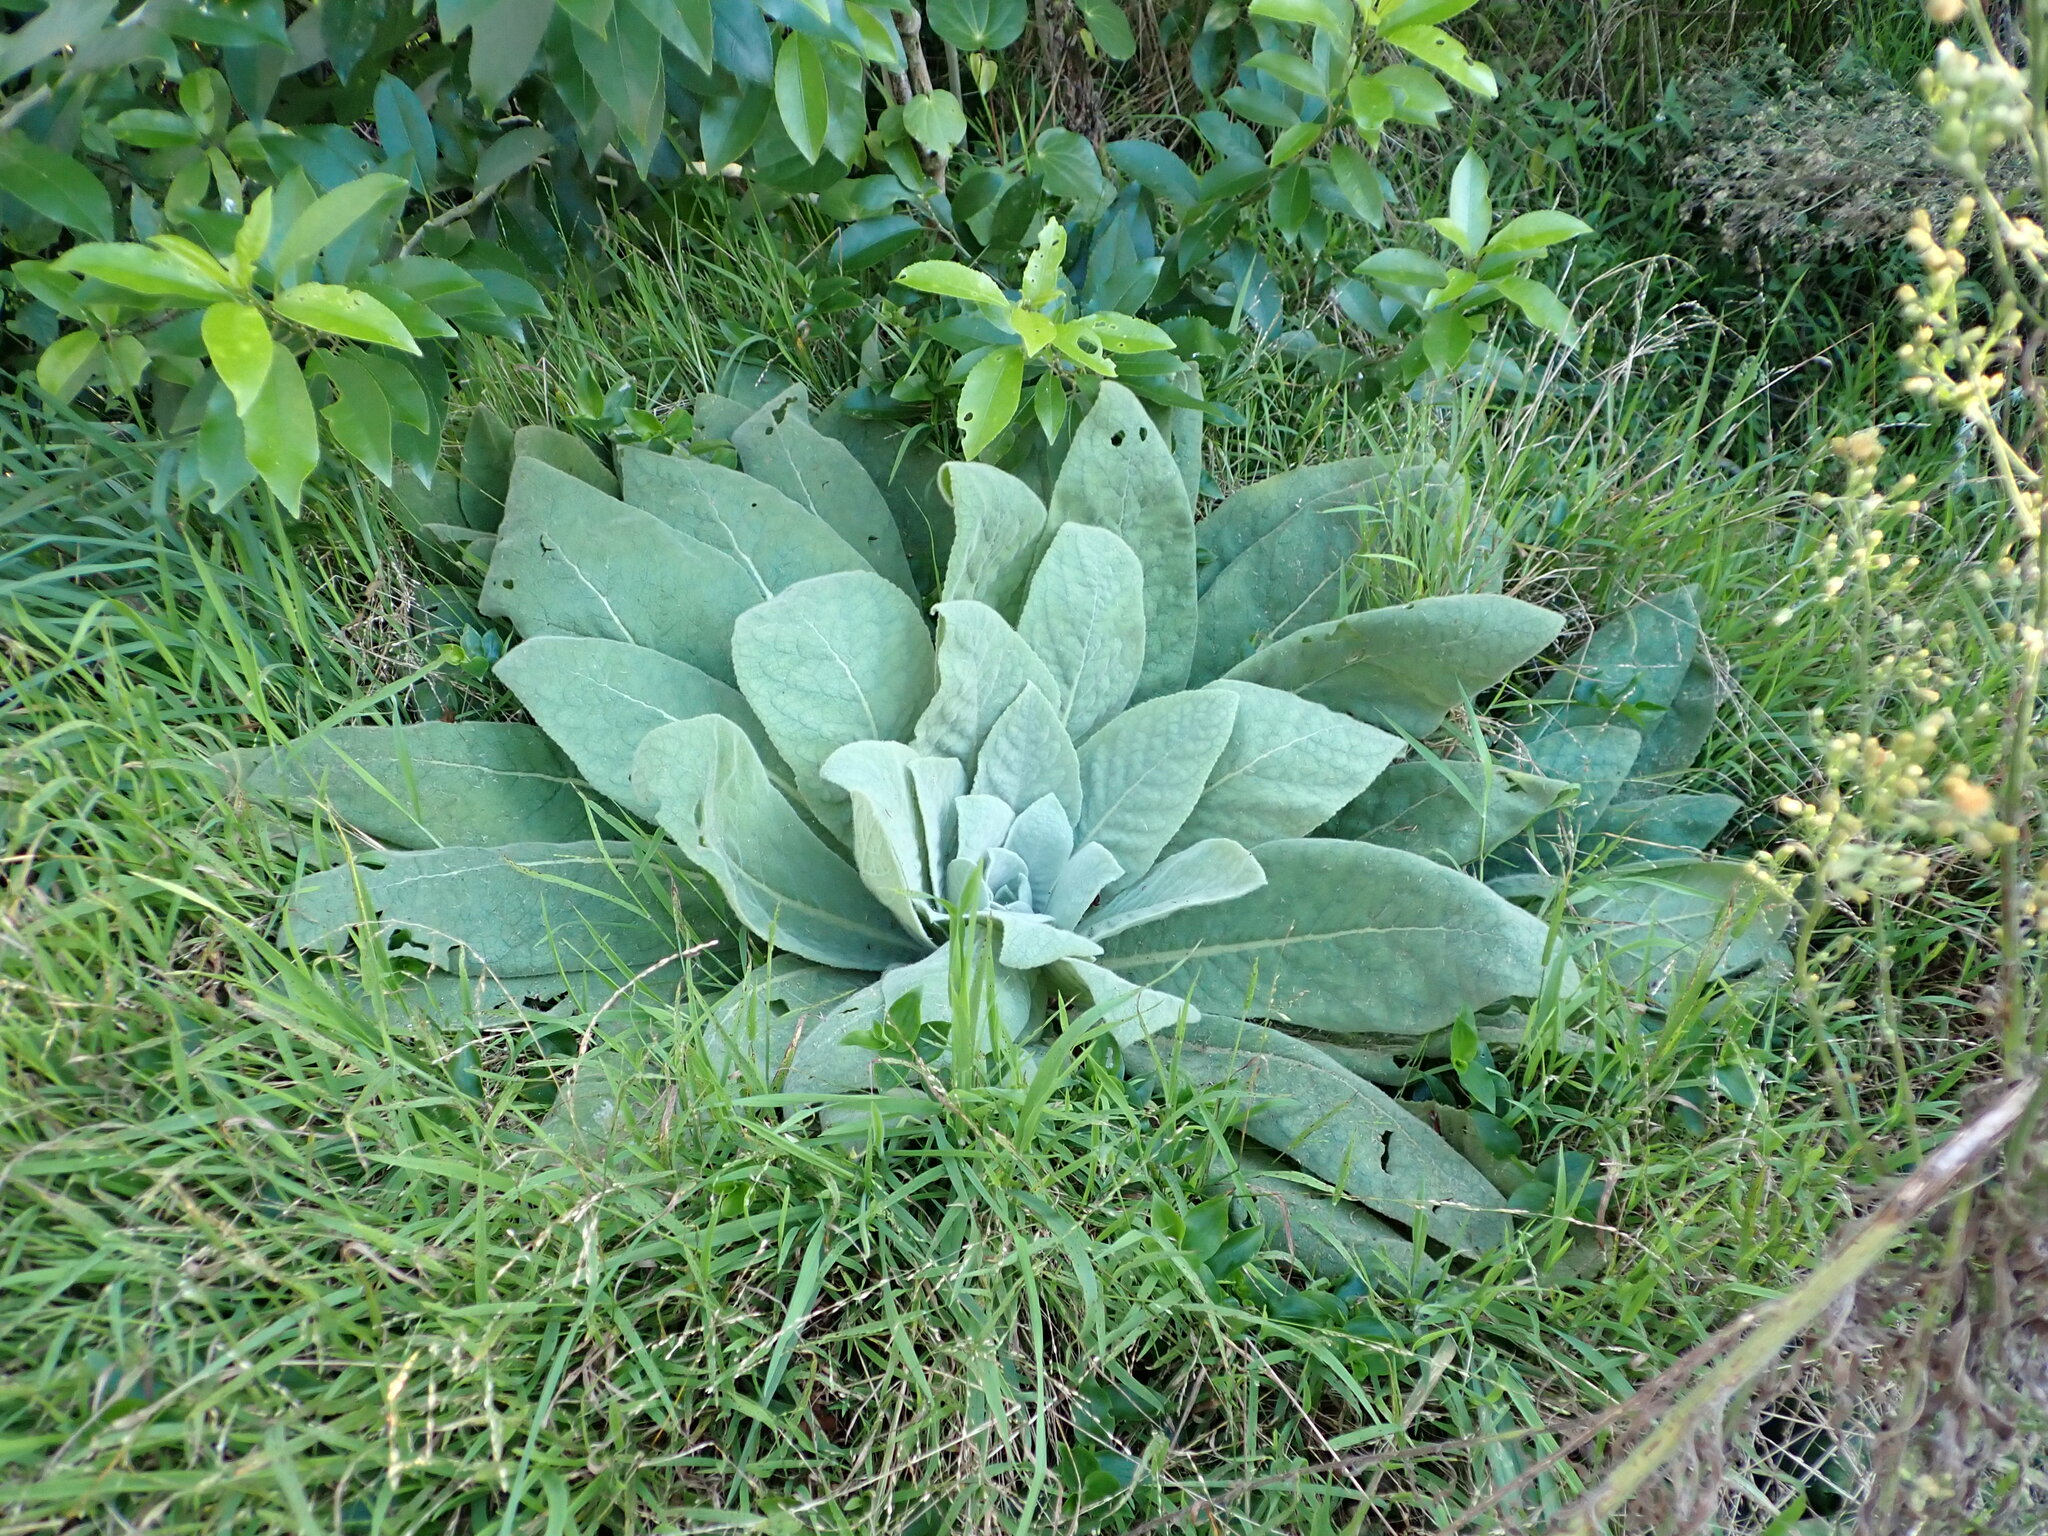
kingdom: Plantae
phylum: Tracheophyta
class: Magnoliopsida
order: Lamiales
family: Scrophulariaceae
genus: Verbascum
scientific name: Verbascum thapsus
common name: Common mullein
